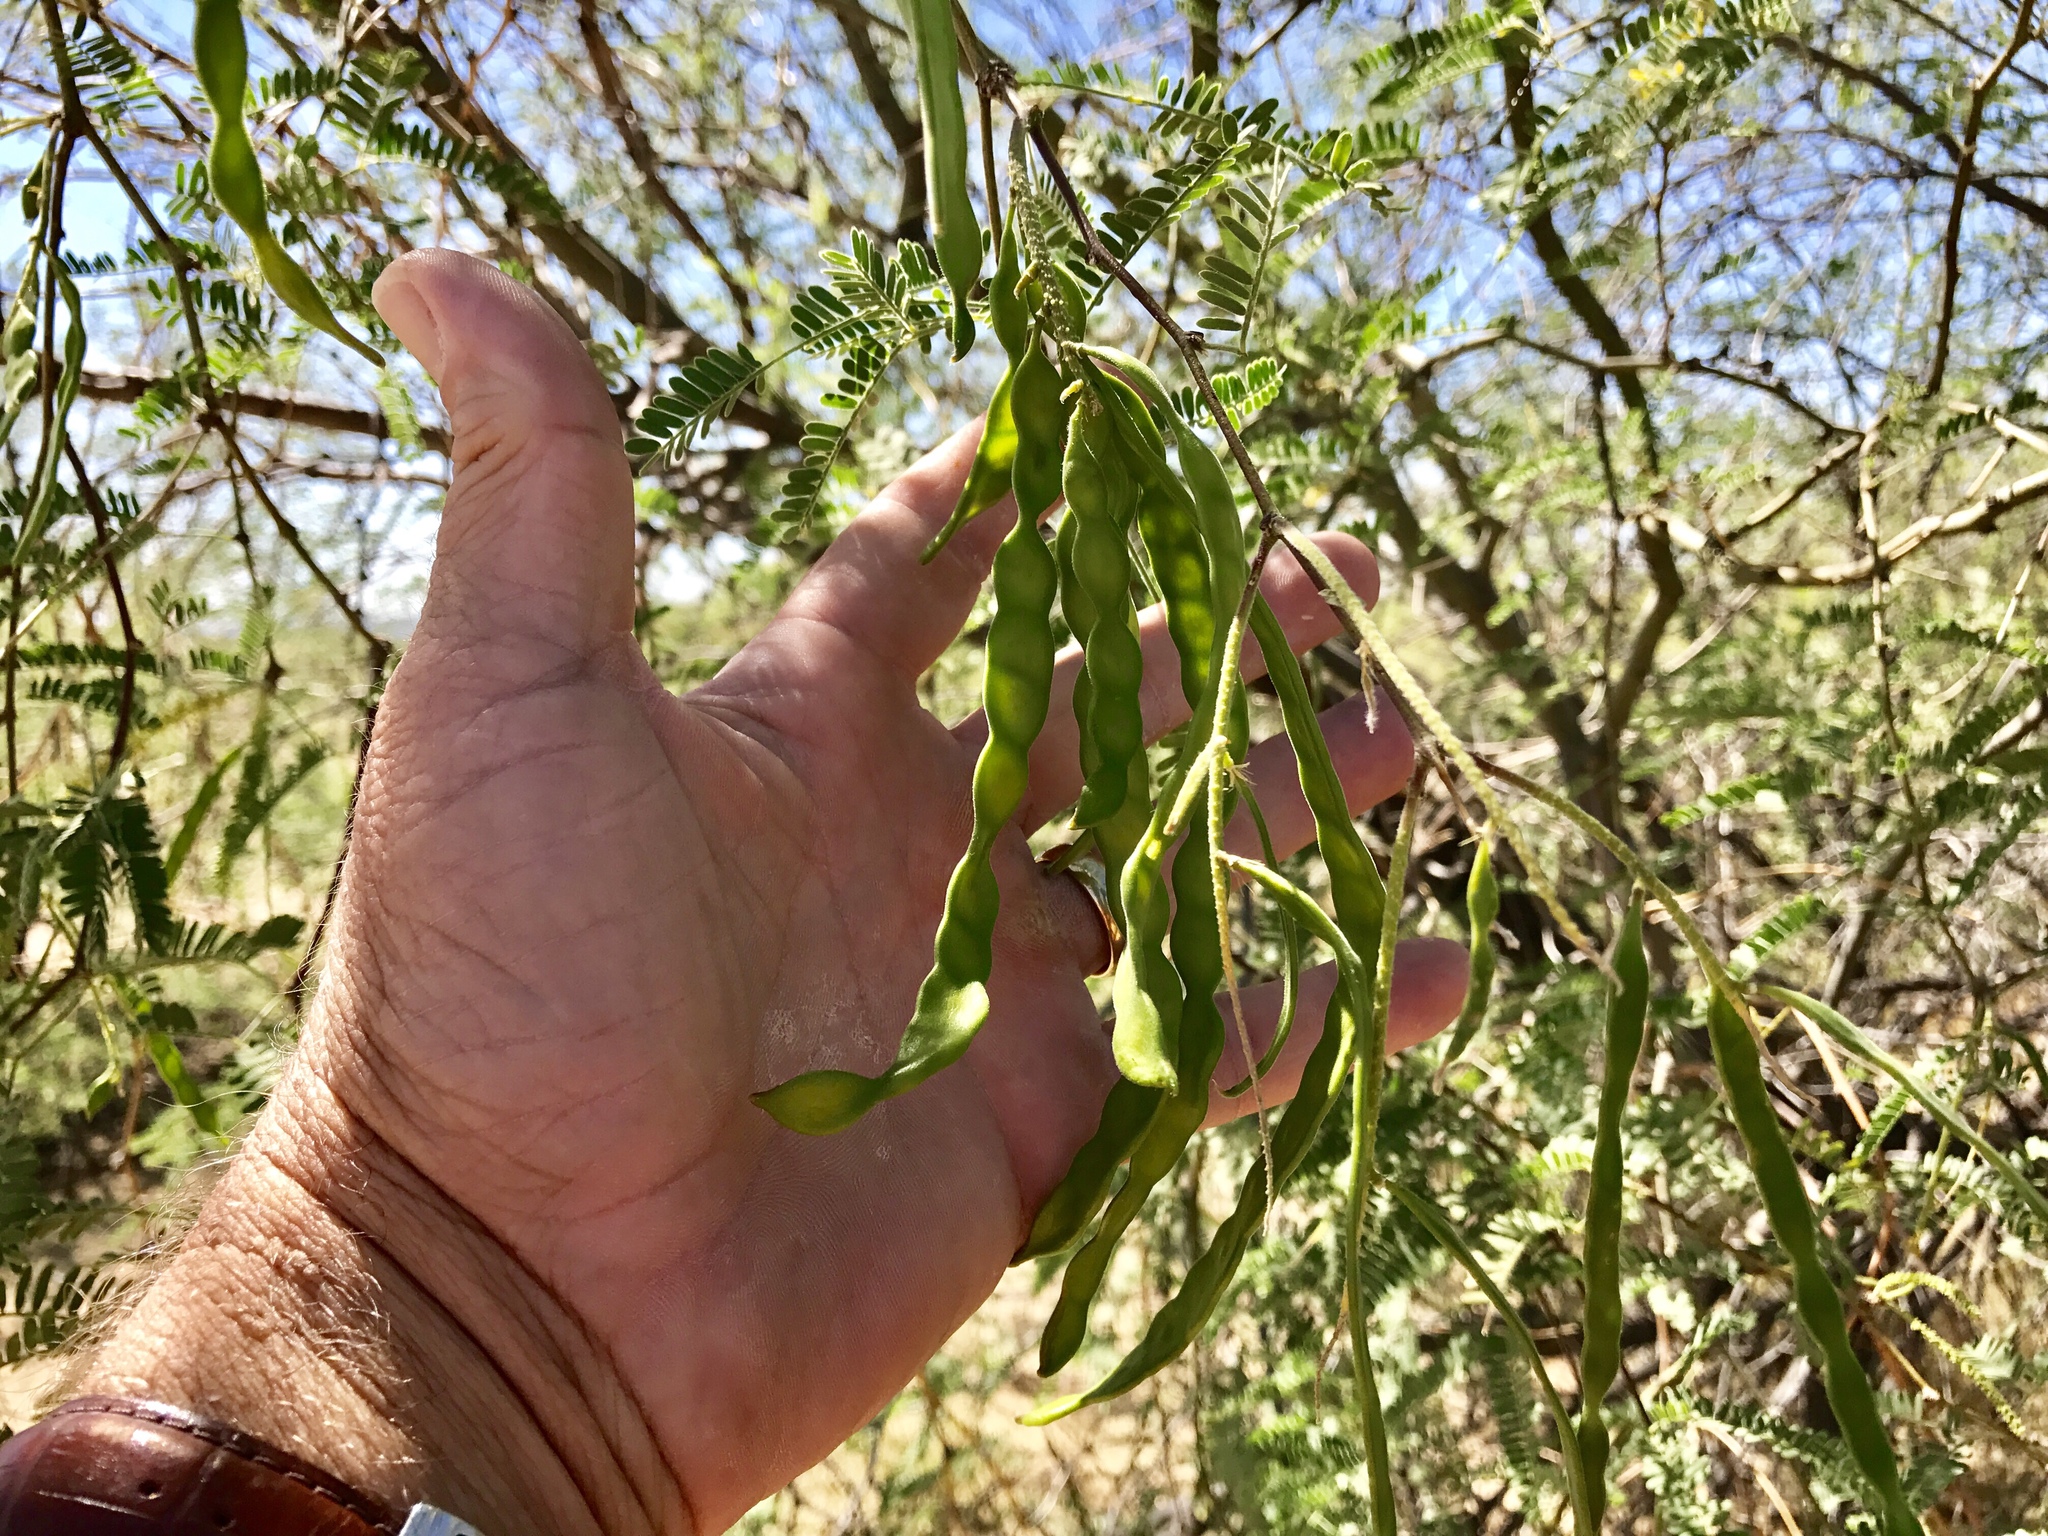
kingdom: Plantae
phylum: Tracheophyta
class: Magnoliopsida
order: Fabales
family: Fabaceae
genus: Prosopis
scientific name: Prosopis velutina
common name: Velvet mesquite
